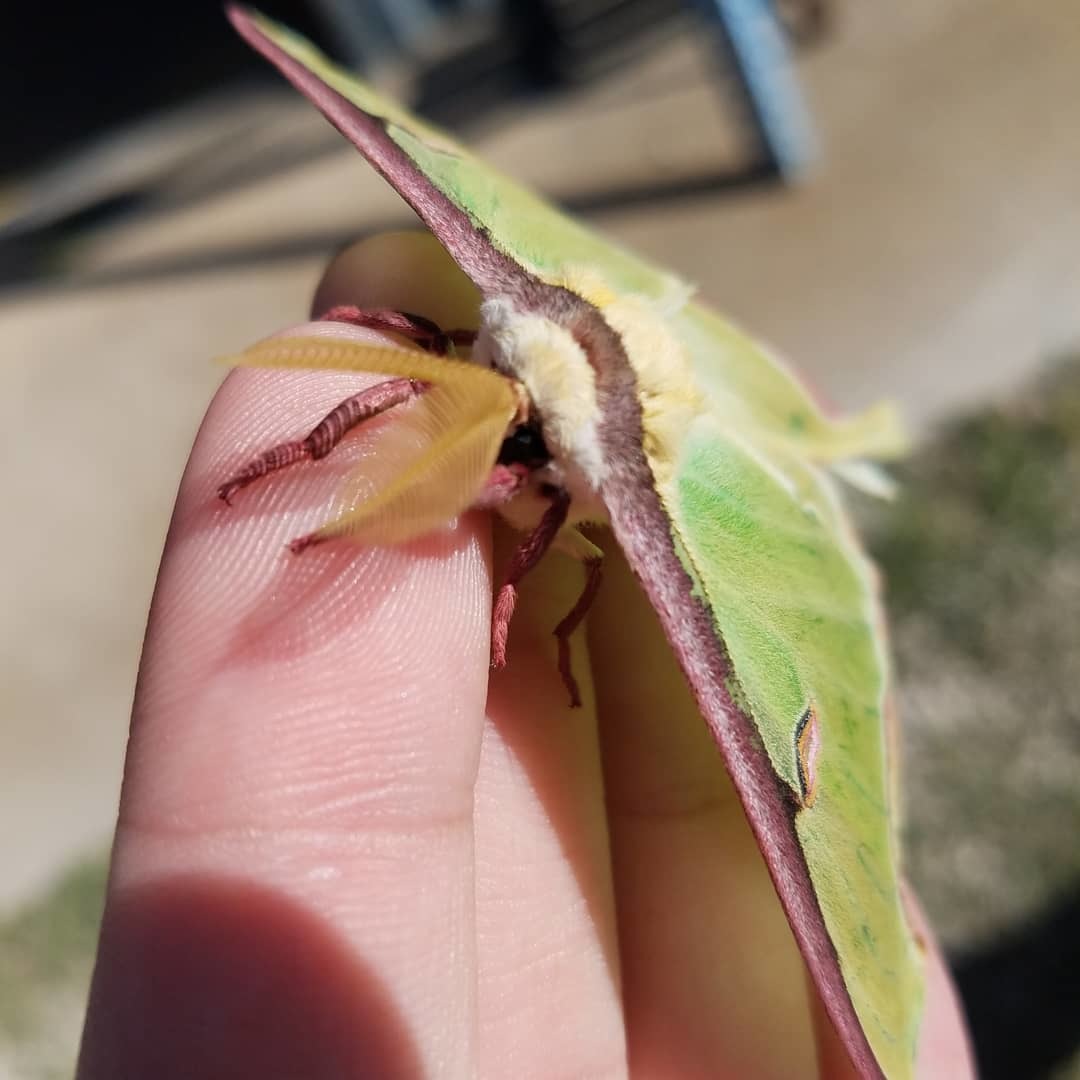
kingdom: Animalia
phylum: Arthropoda
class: Insecta
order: Lepidoptera
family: Saturniidae
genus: Actias
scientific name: Actias luna
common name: Luna moth
